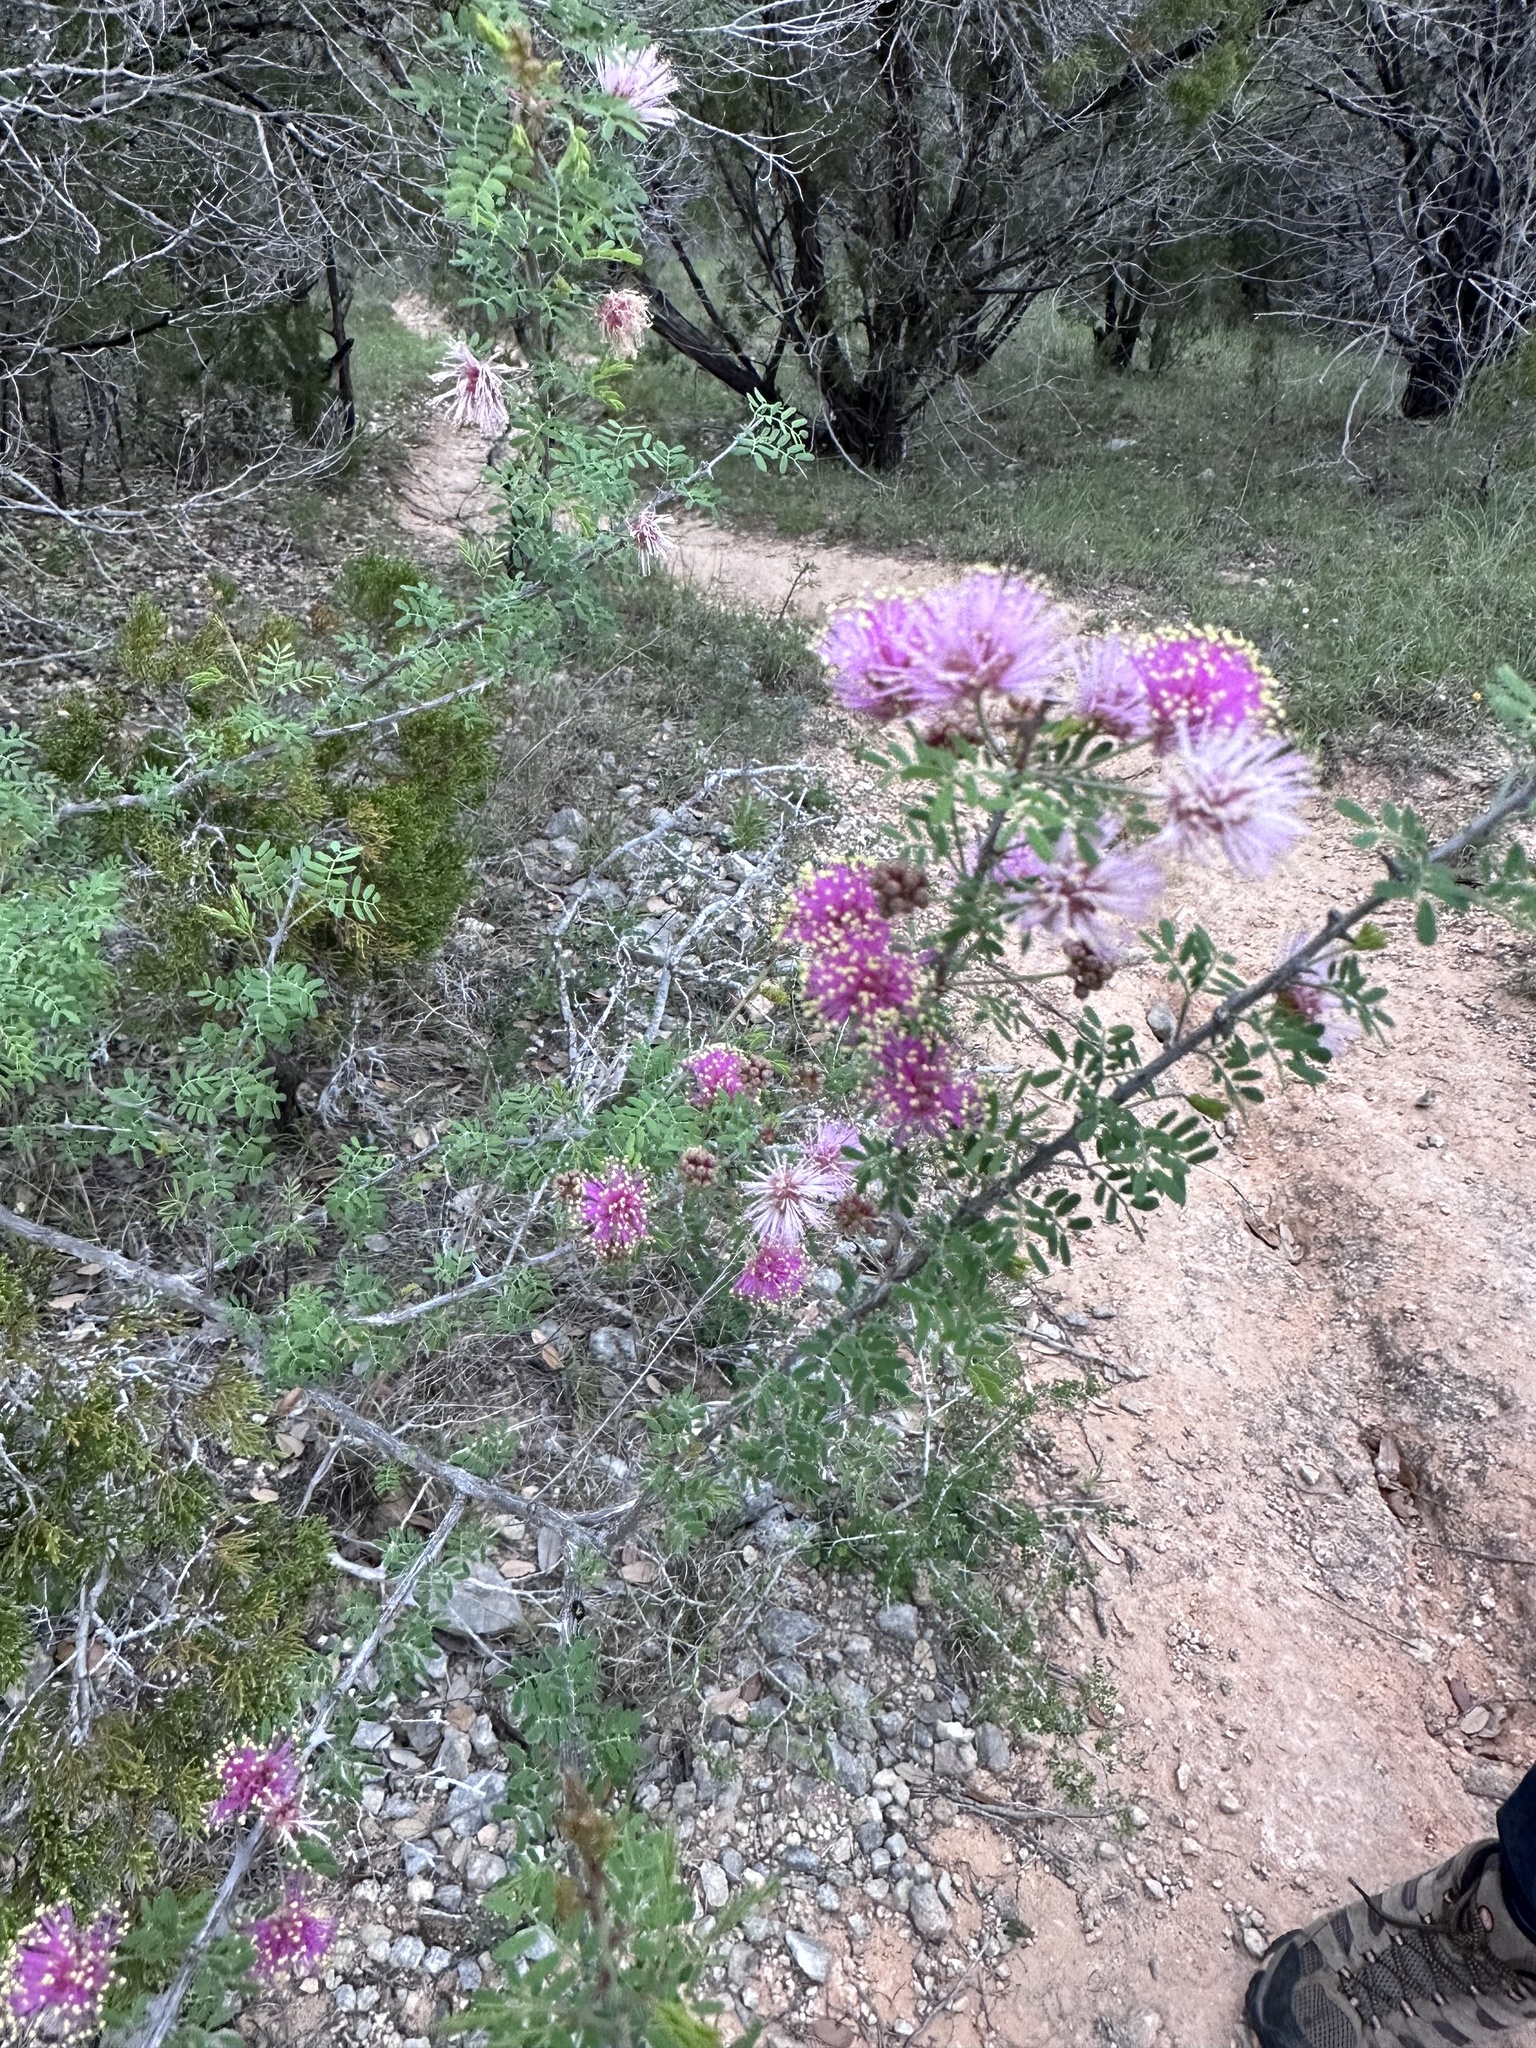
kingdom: Plantae
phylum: Tracheophyta
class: Magnoliopsida
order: Fabales
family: Fabaceae
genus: Mimosa
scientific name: Mimosa borealis
